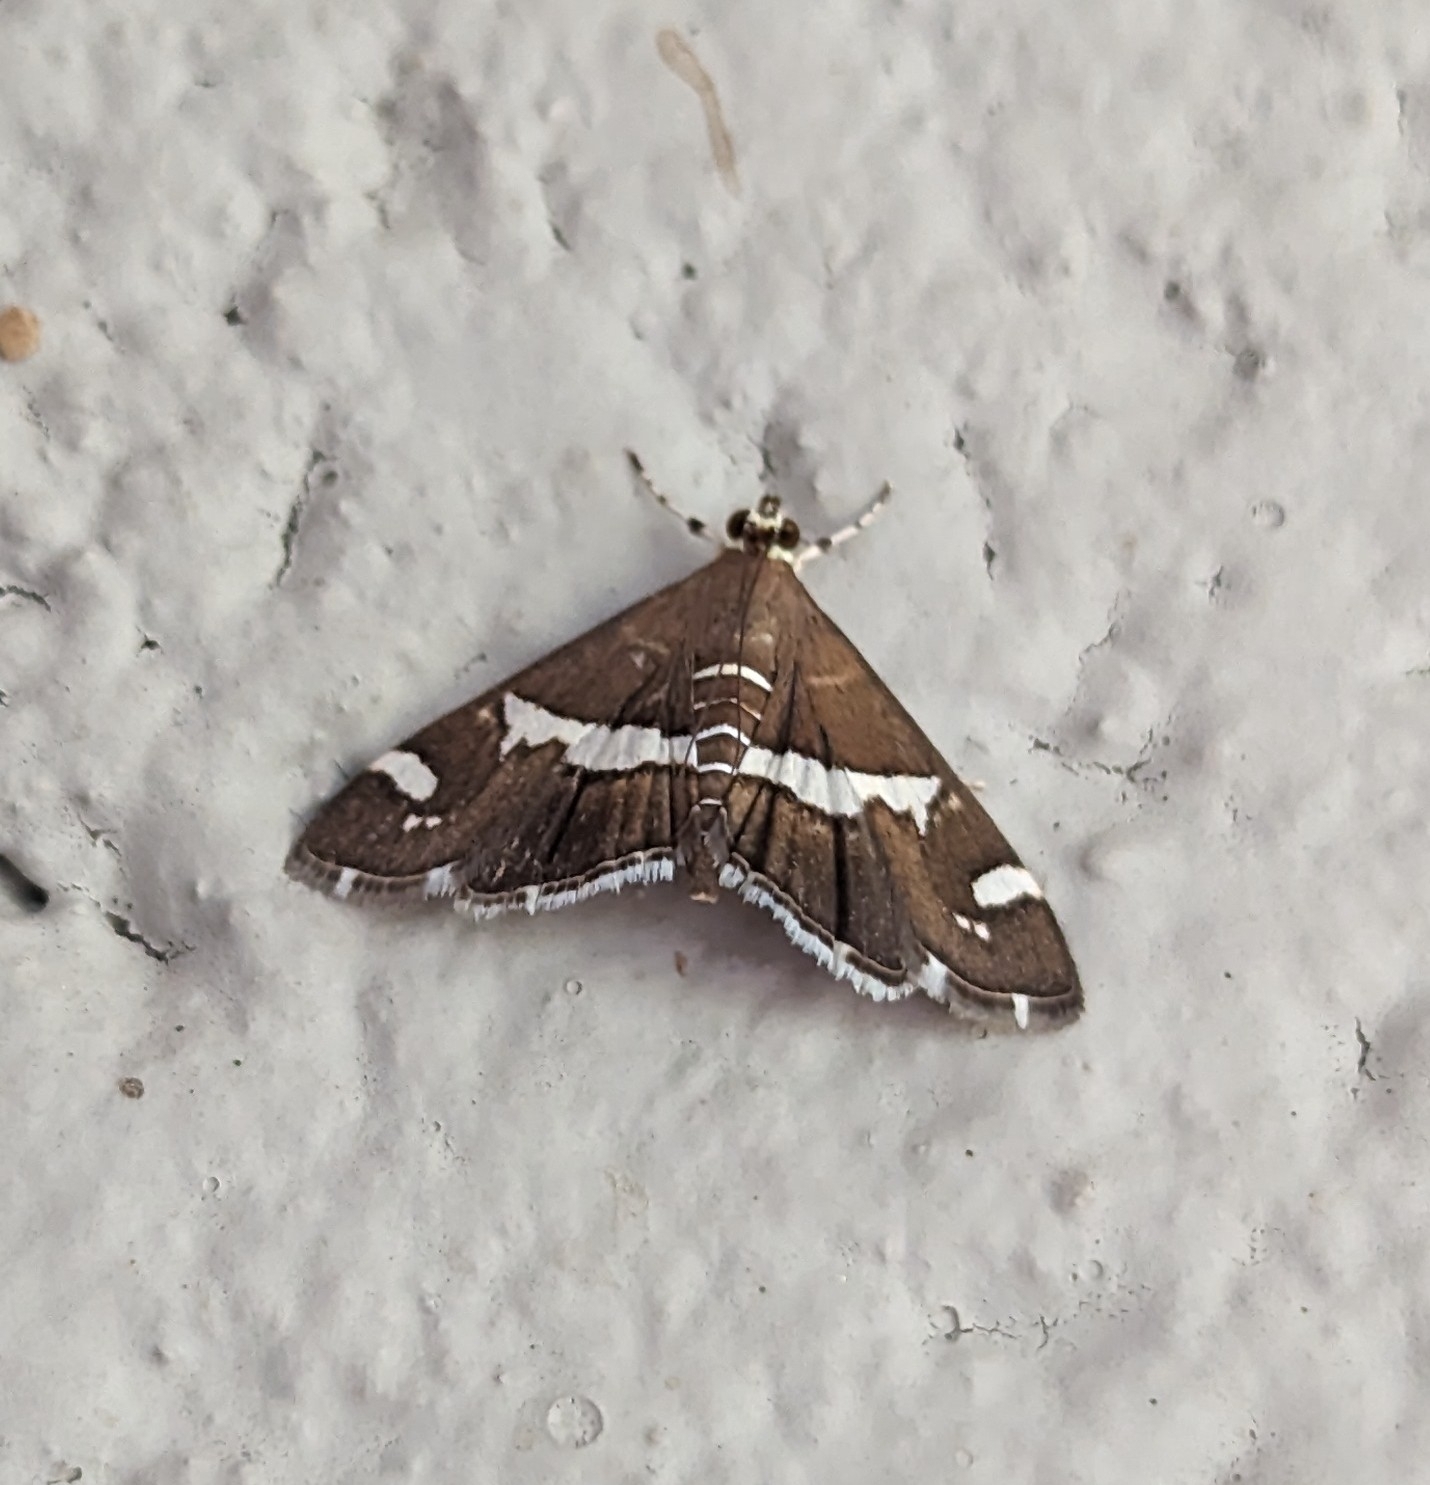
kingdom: Animalia
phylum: Arthropoda
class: Insecta
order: Lepidoptera
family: Crambidae
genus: Spoladea
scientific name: Spoladea recurvalis
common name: Beet webworm moth
